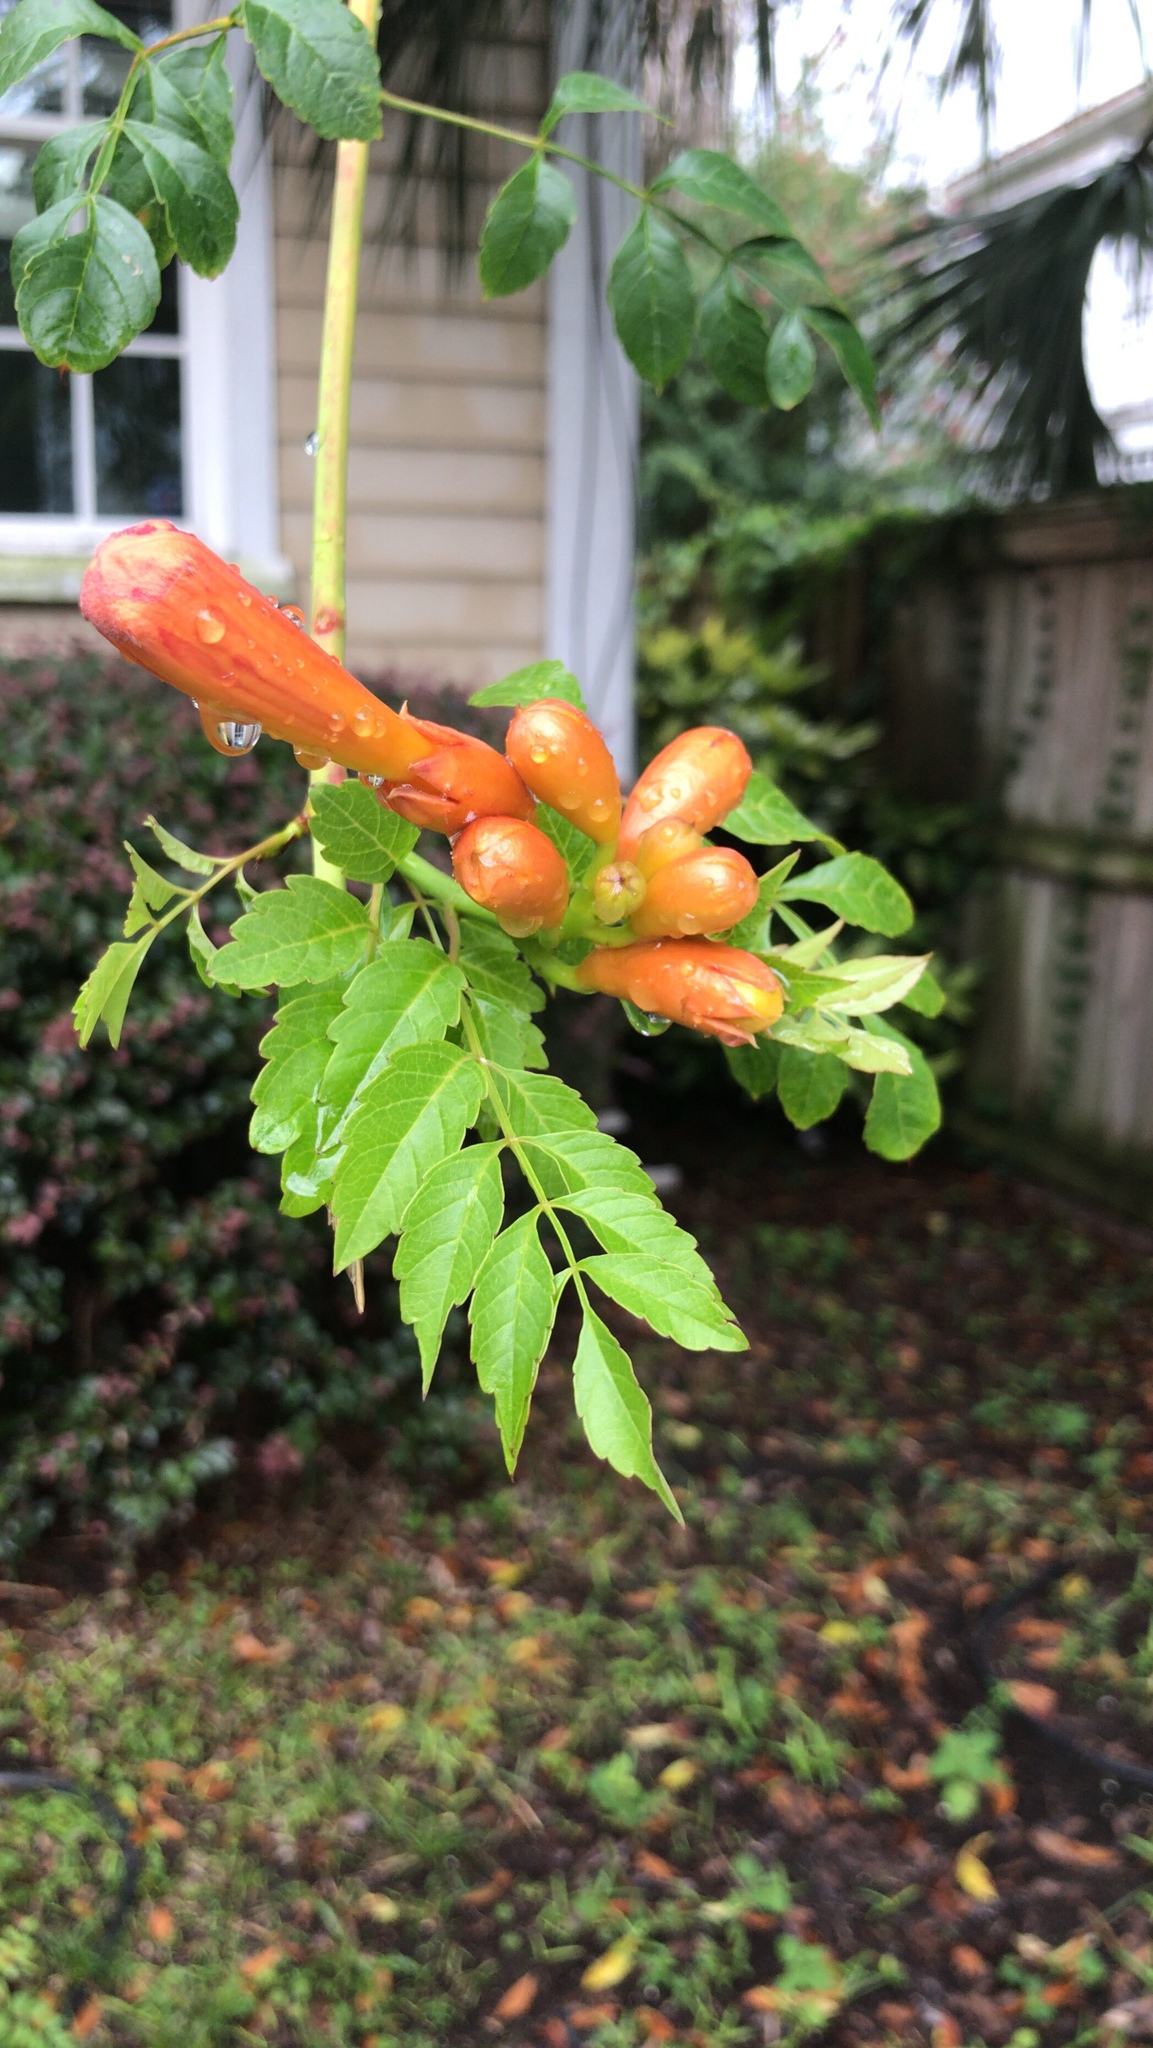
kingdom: Plantae
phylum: Tracheophyta
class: Magnoliopsida
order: Lamiales
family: Bignoniaceae
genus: Campsis
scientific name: Campsis radicans
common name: Trumpet-creeper
